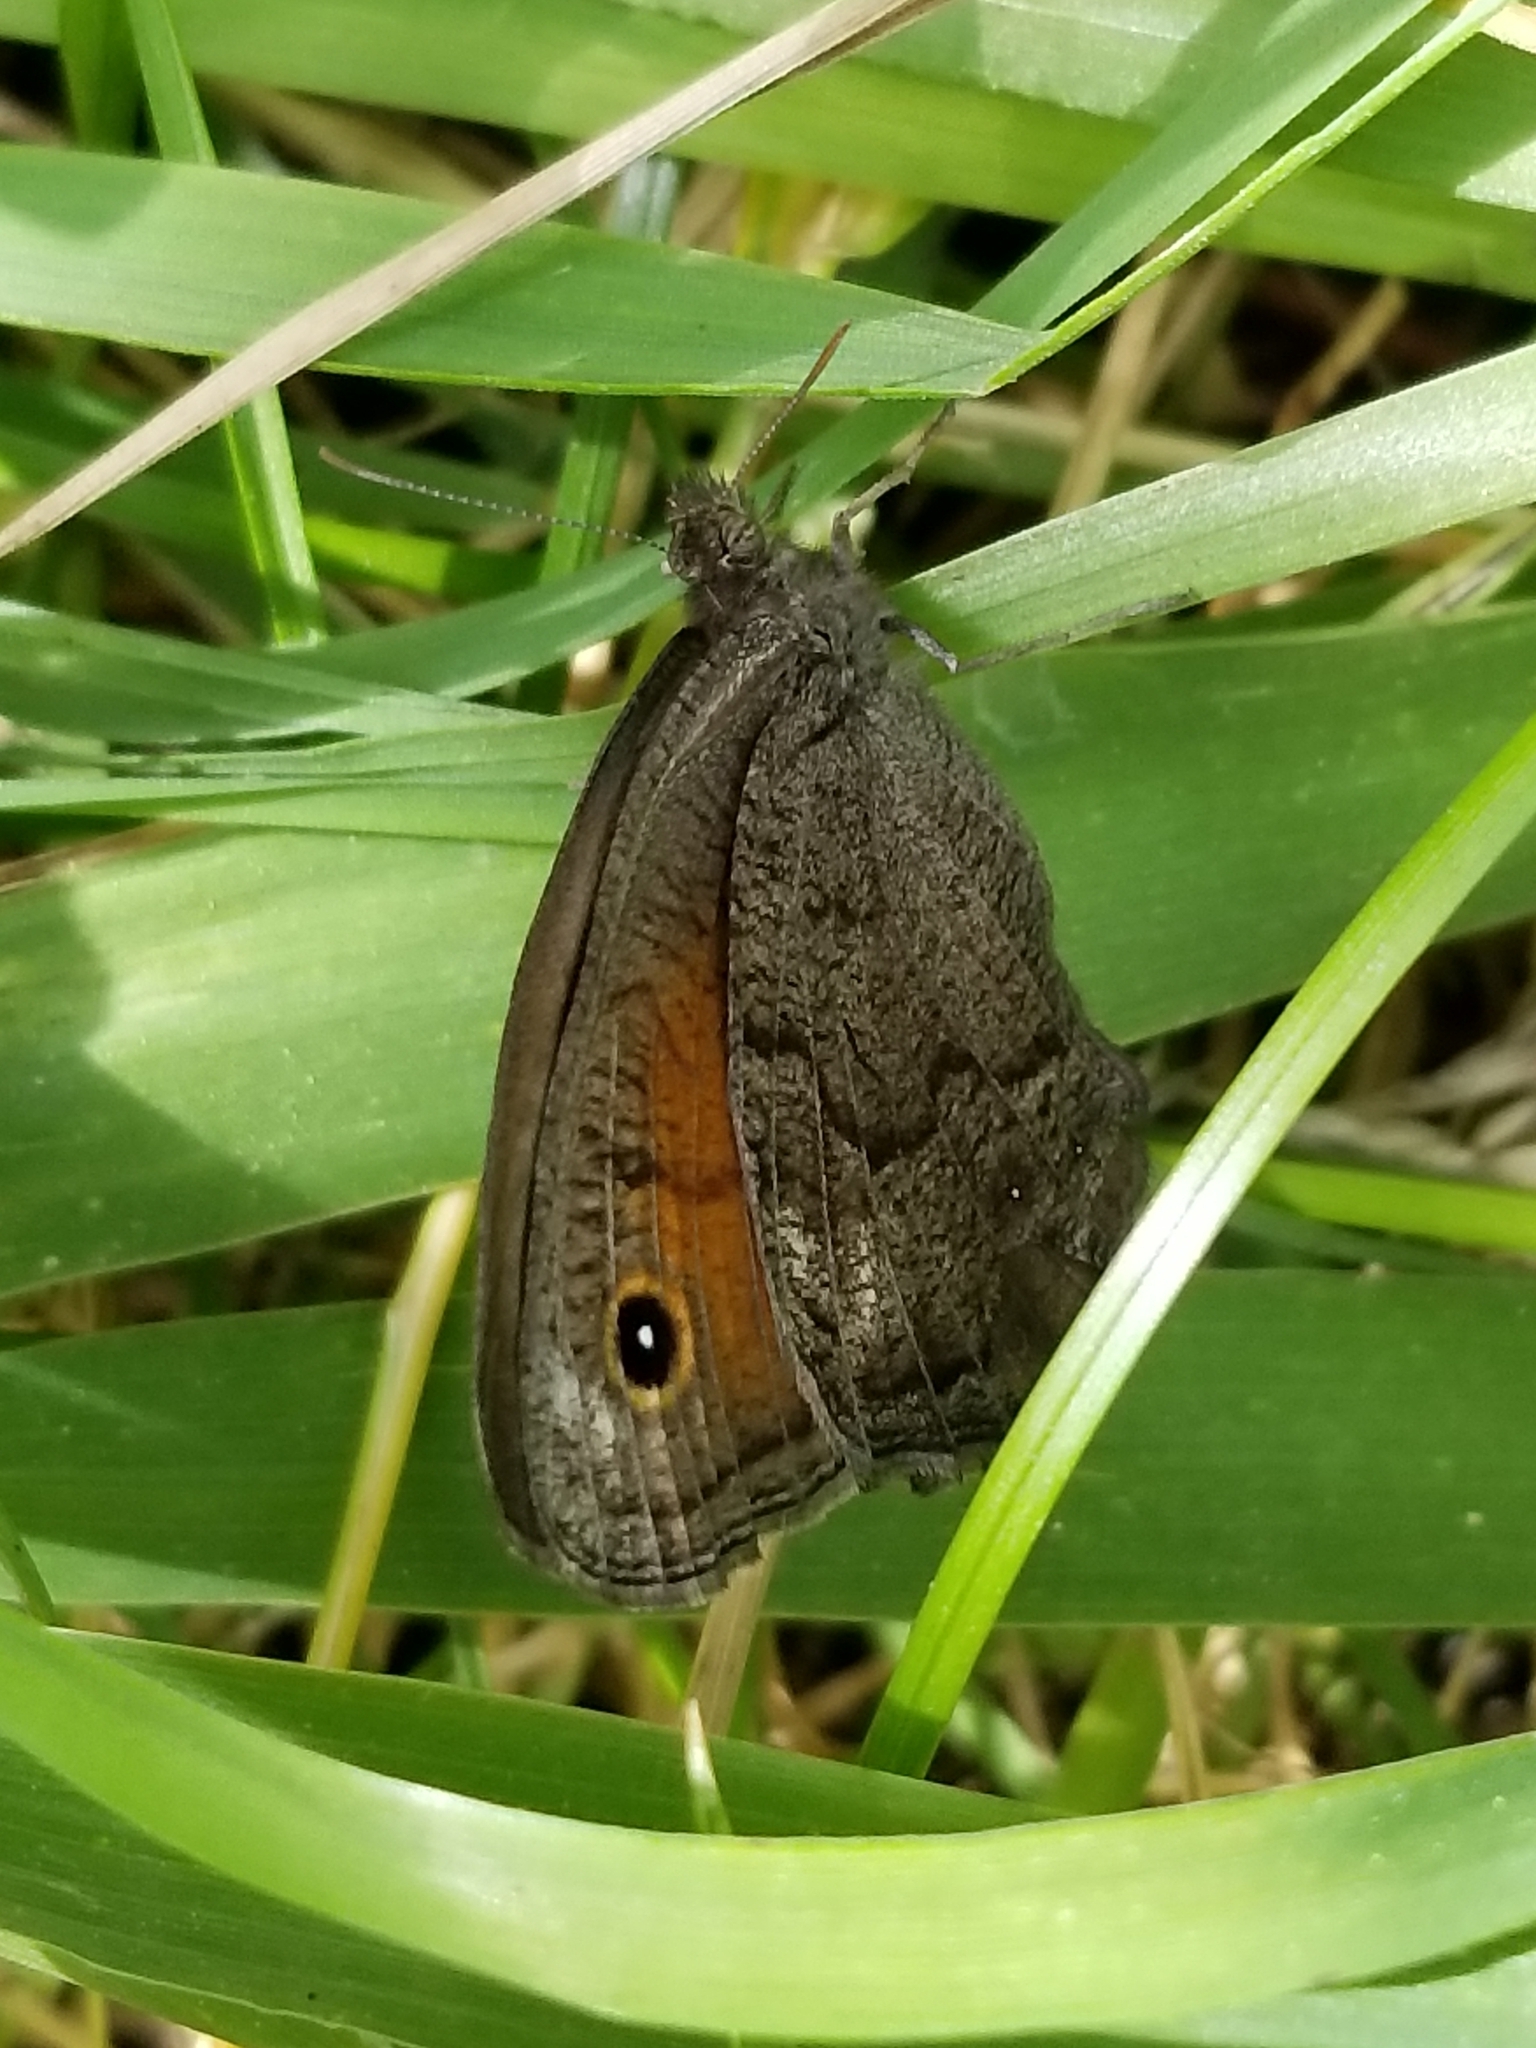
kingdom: Animalia
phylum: Arthropoda
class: Insecta
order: Lepidoptera
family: Nymphalidae
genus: Cercyonis
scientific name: Cercyonis meadi
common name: Mead's wood-nymph
